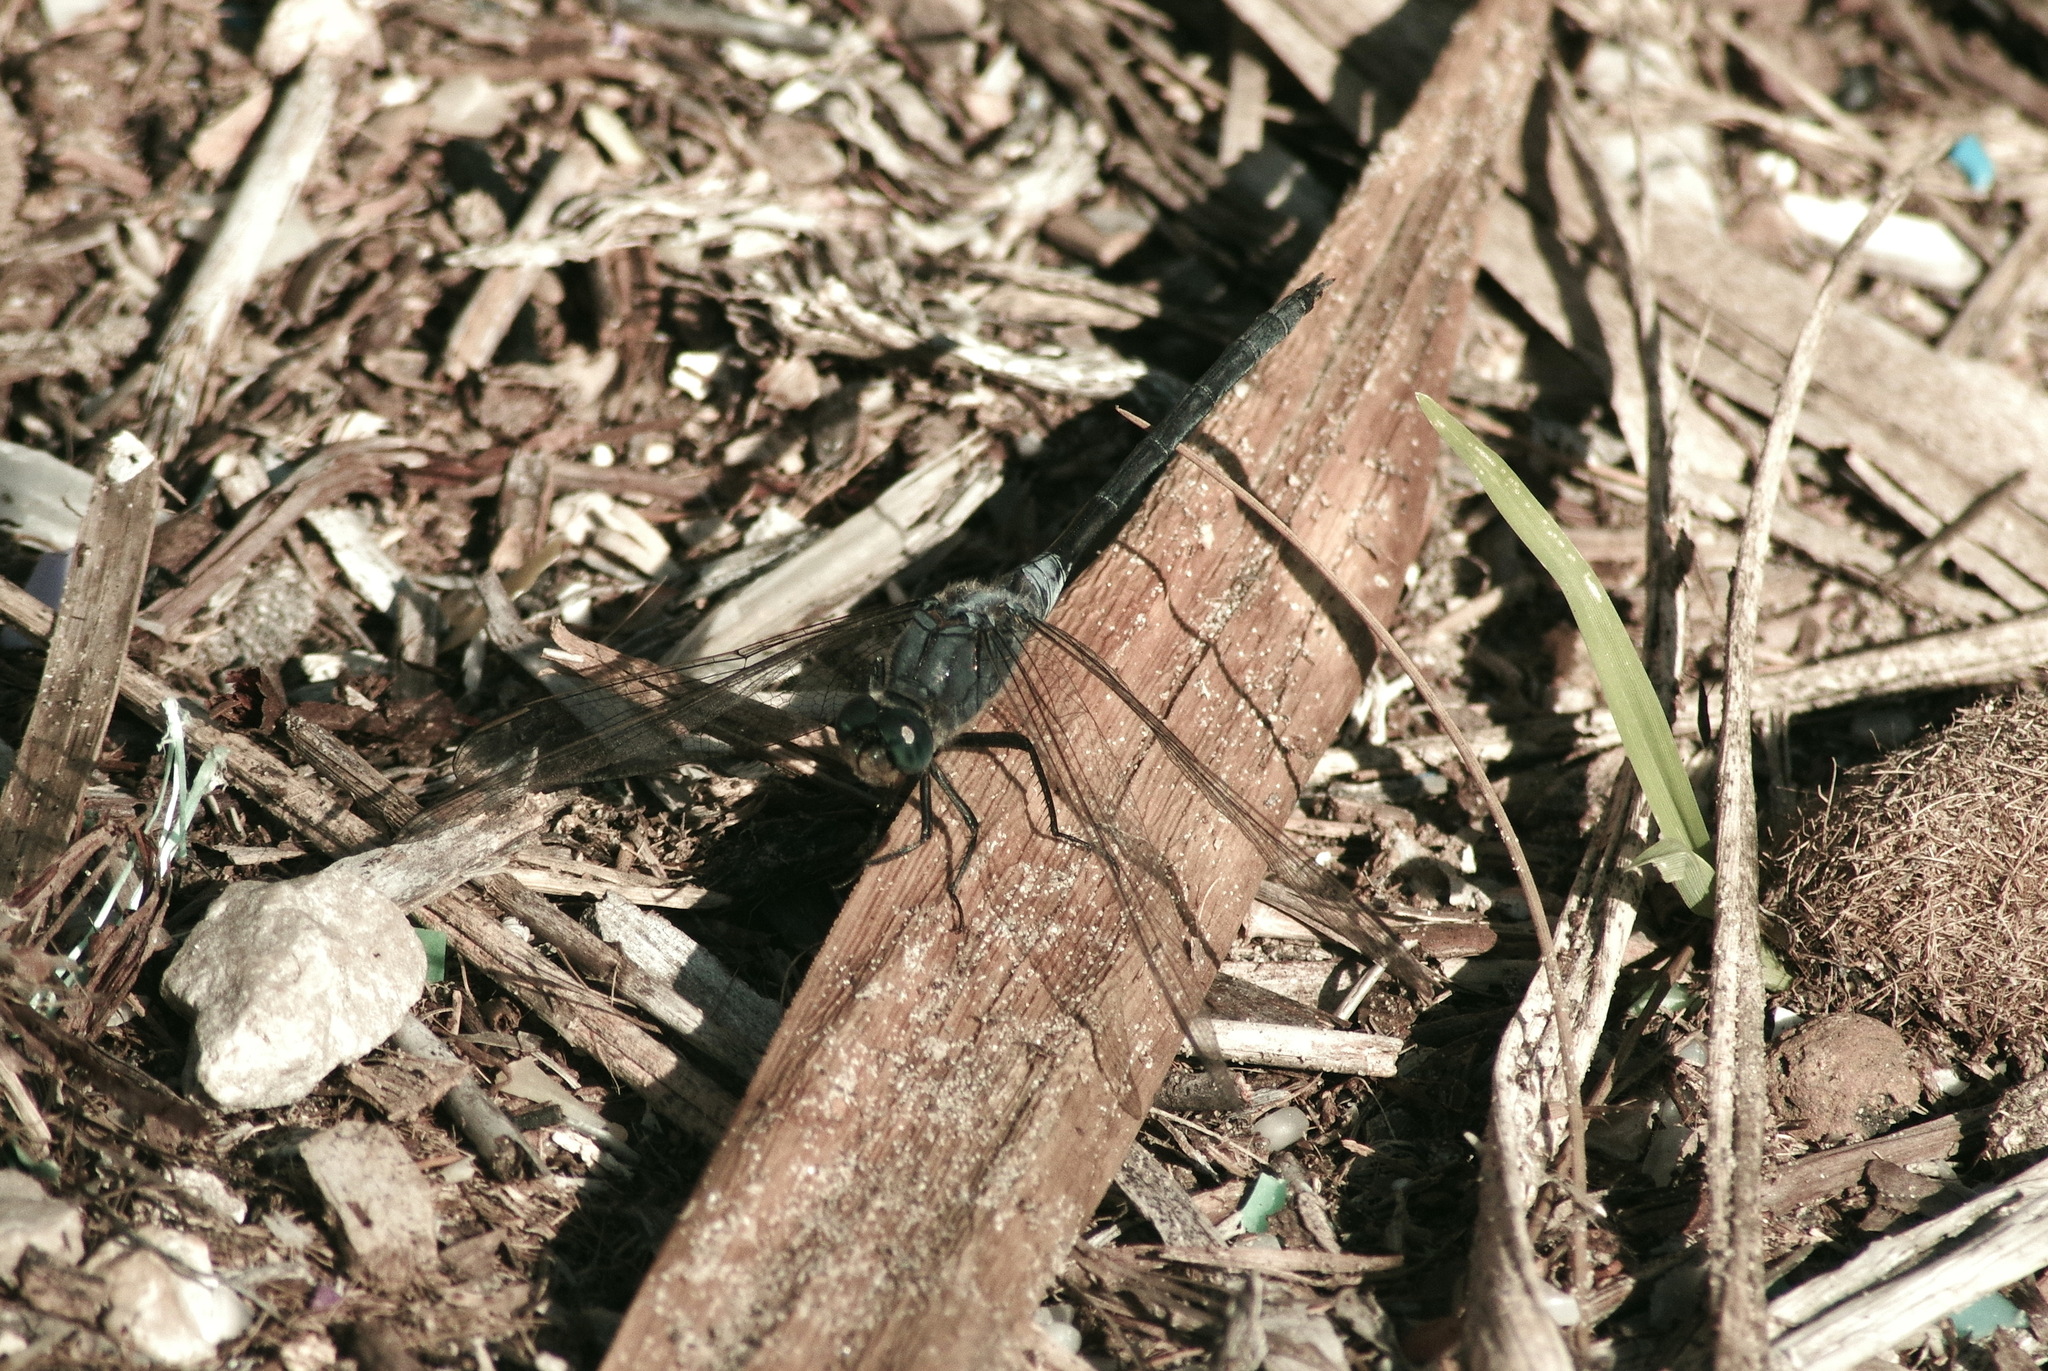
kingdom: Animalia
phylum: Arthropoda
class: Insecta
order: Odonata
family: Libellulidae
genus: Orthetrum
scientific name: Orthetrum trinacria
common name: Long skimmer
